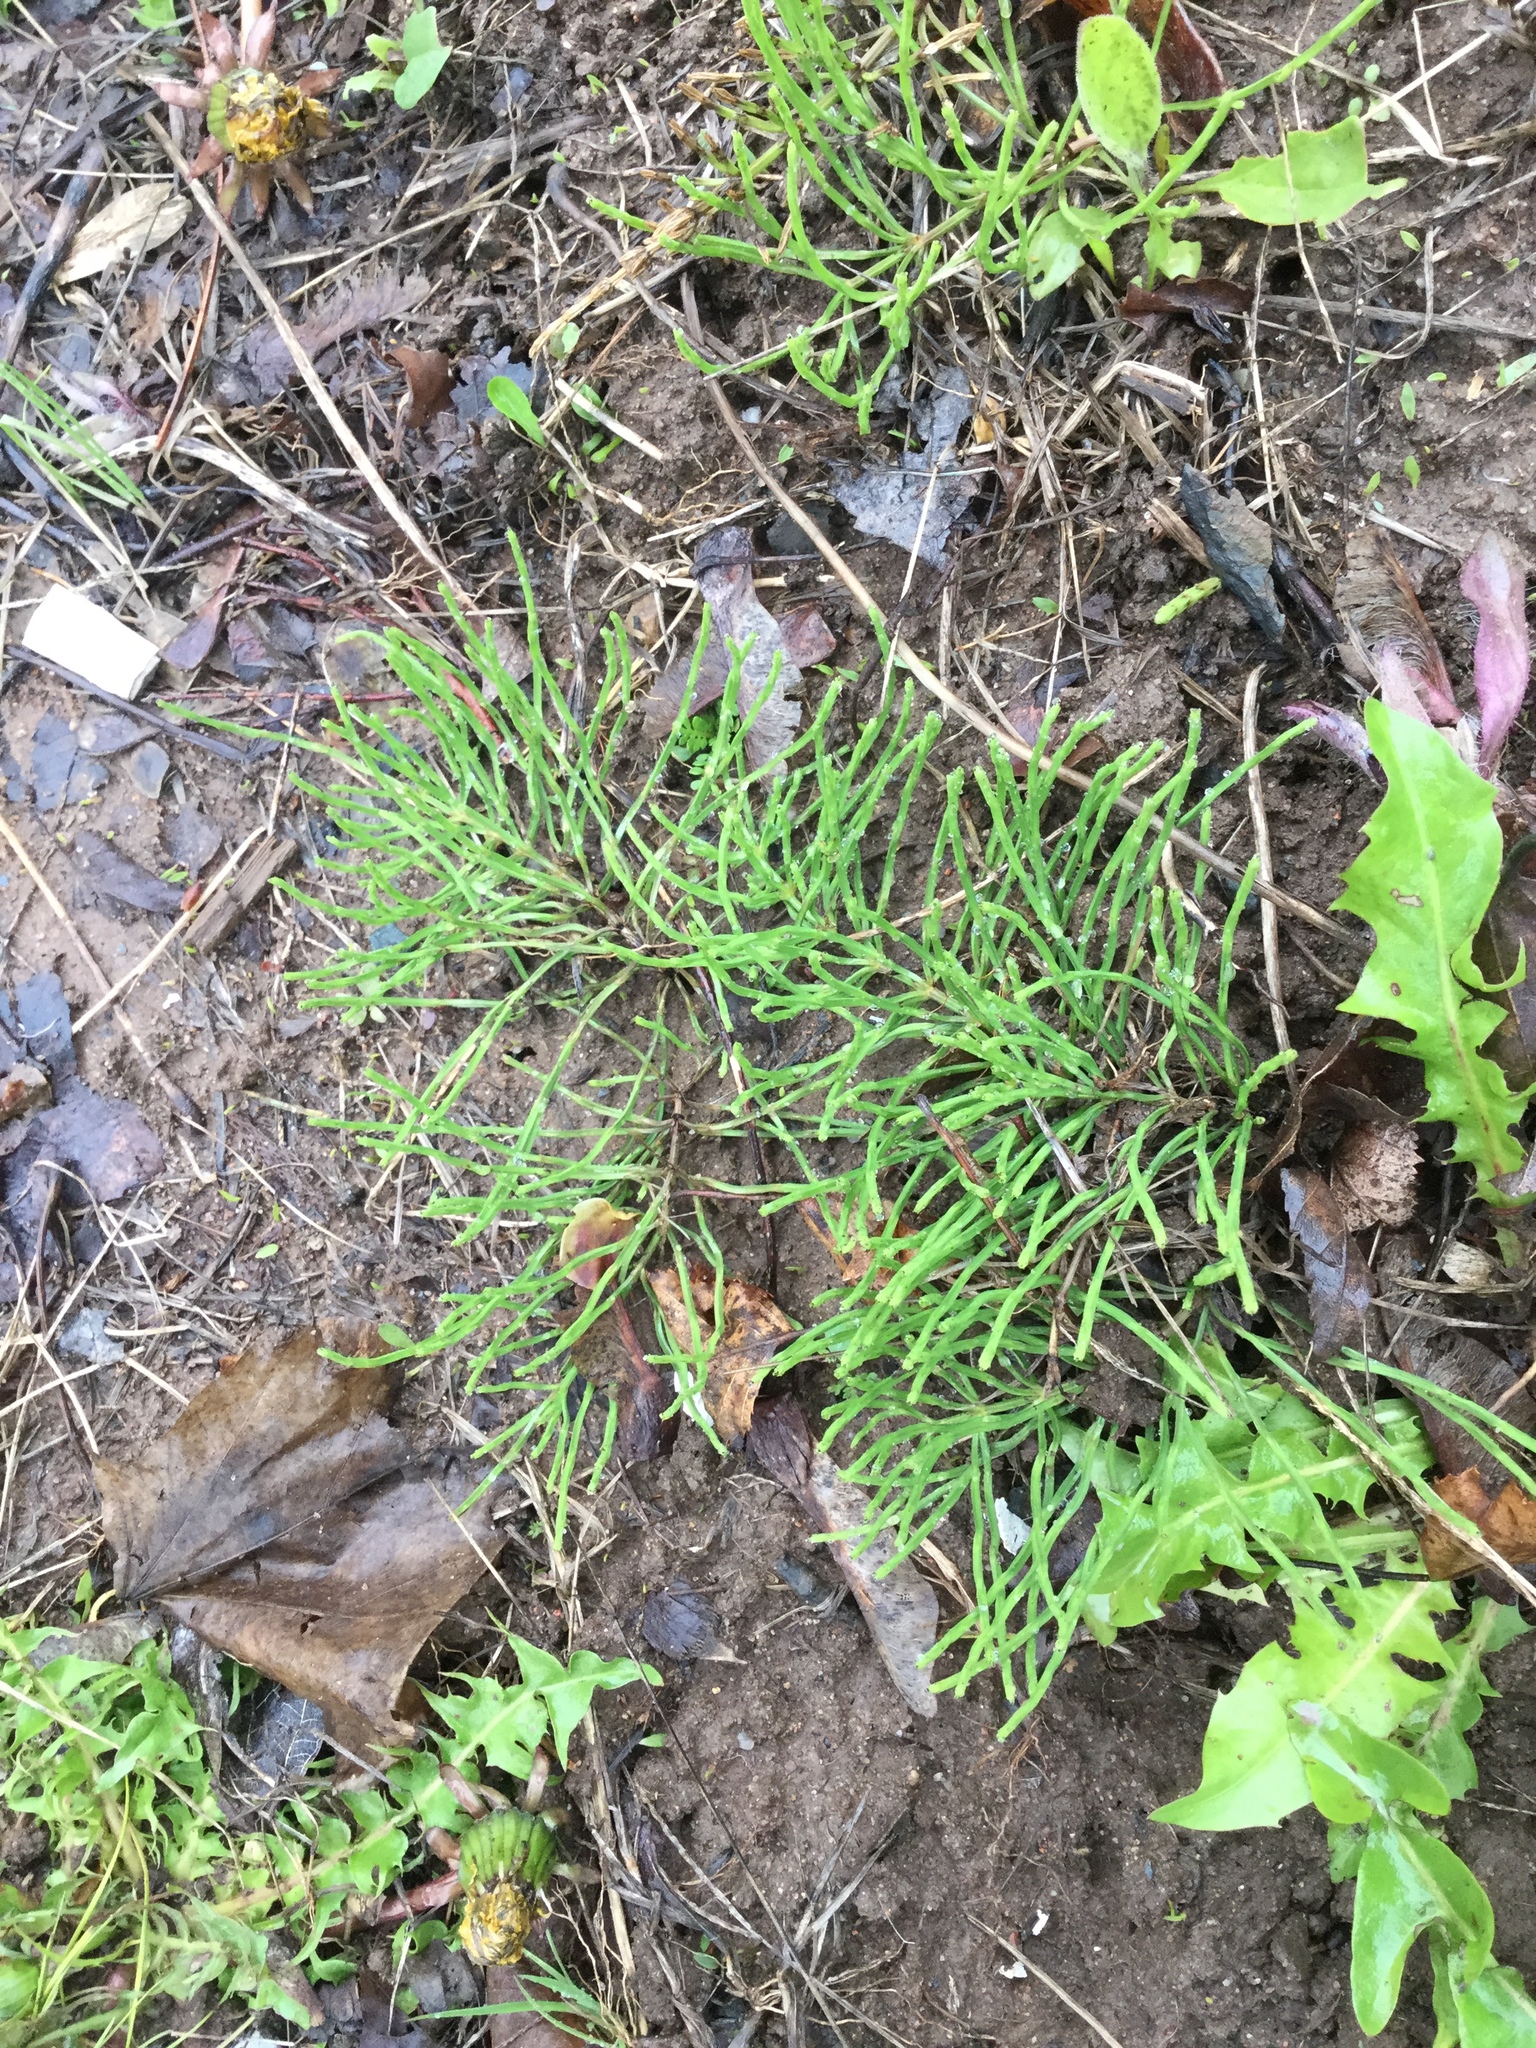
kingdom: Plantae
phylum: Tracheophyta
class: Polypodiopsida
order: Equisetales
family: Equisetaceae
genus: Equisetum
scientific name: Equisetum arvense
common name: Field horsetail
